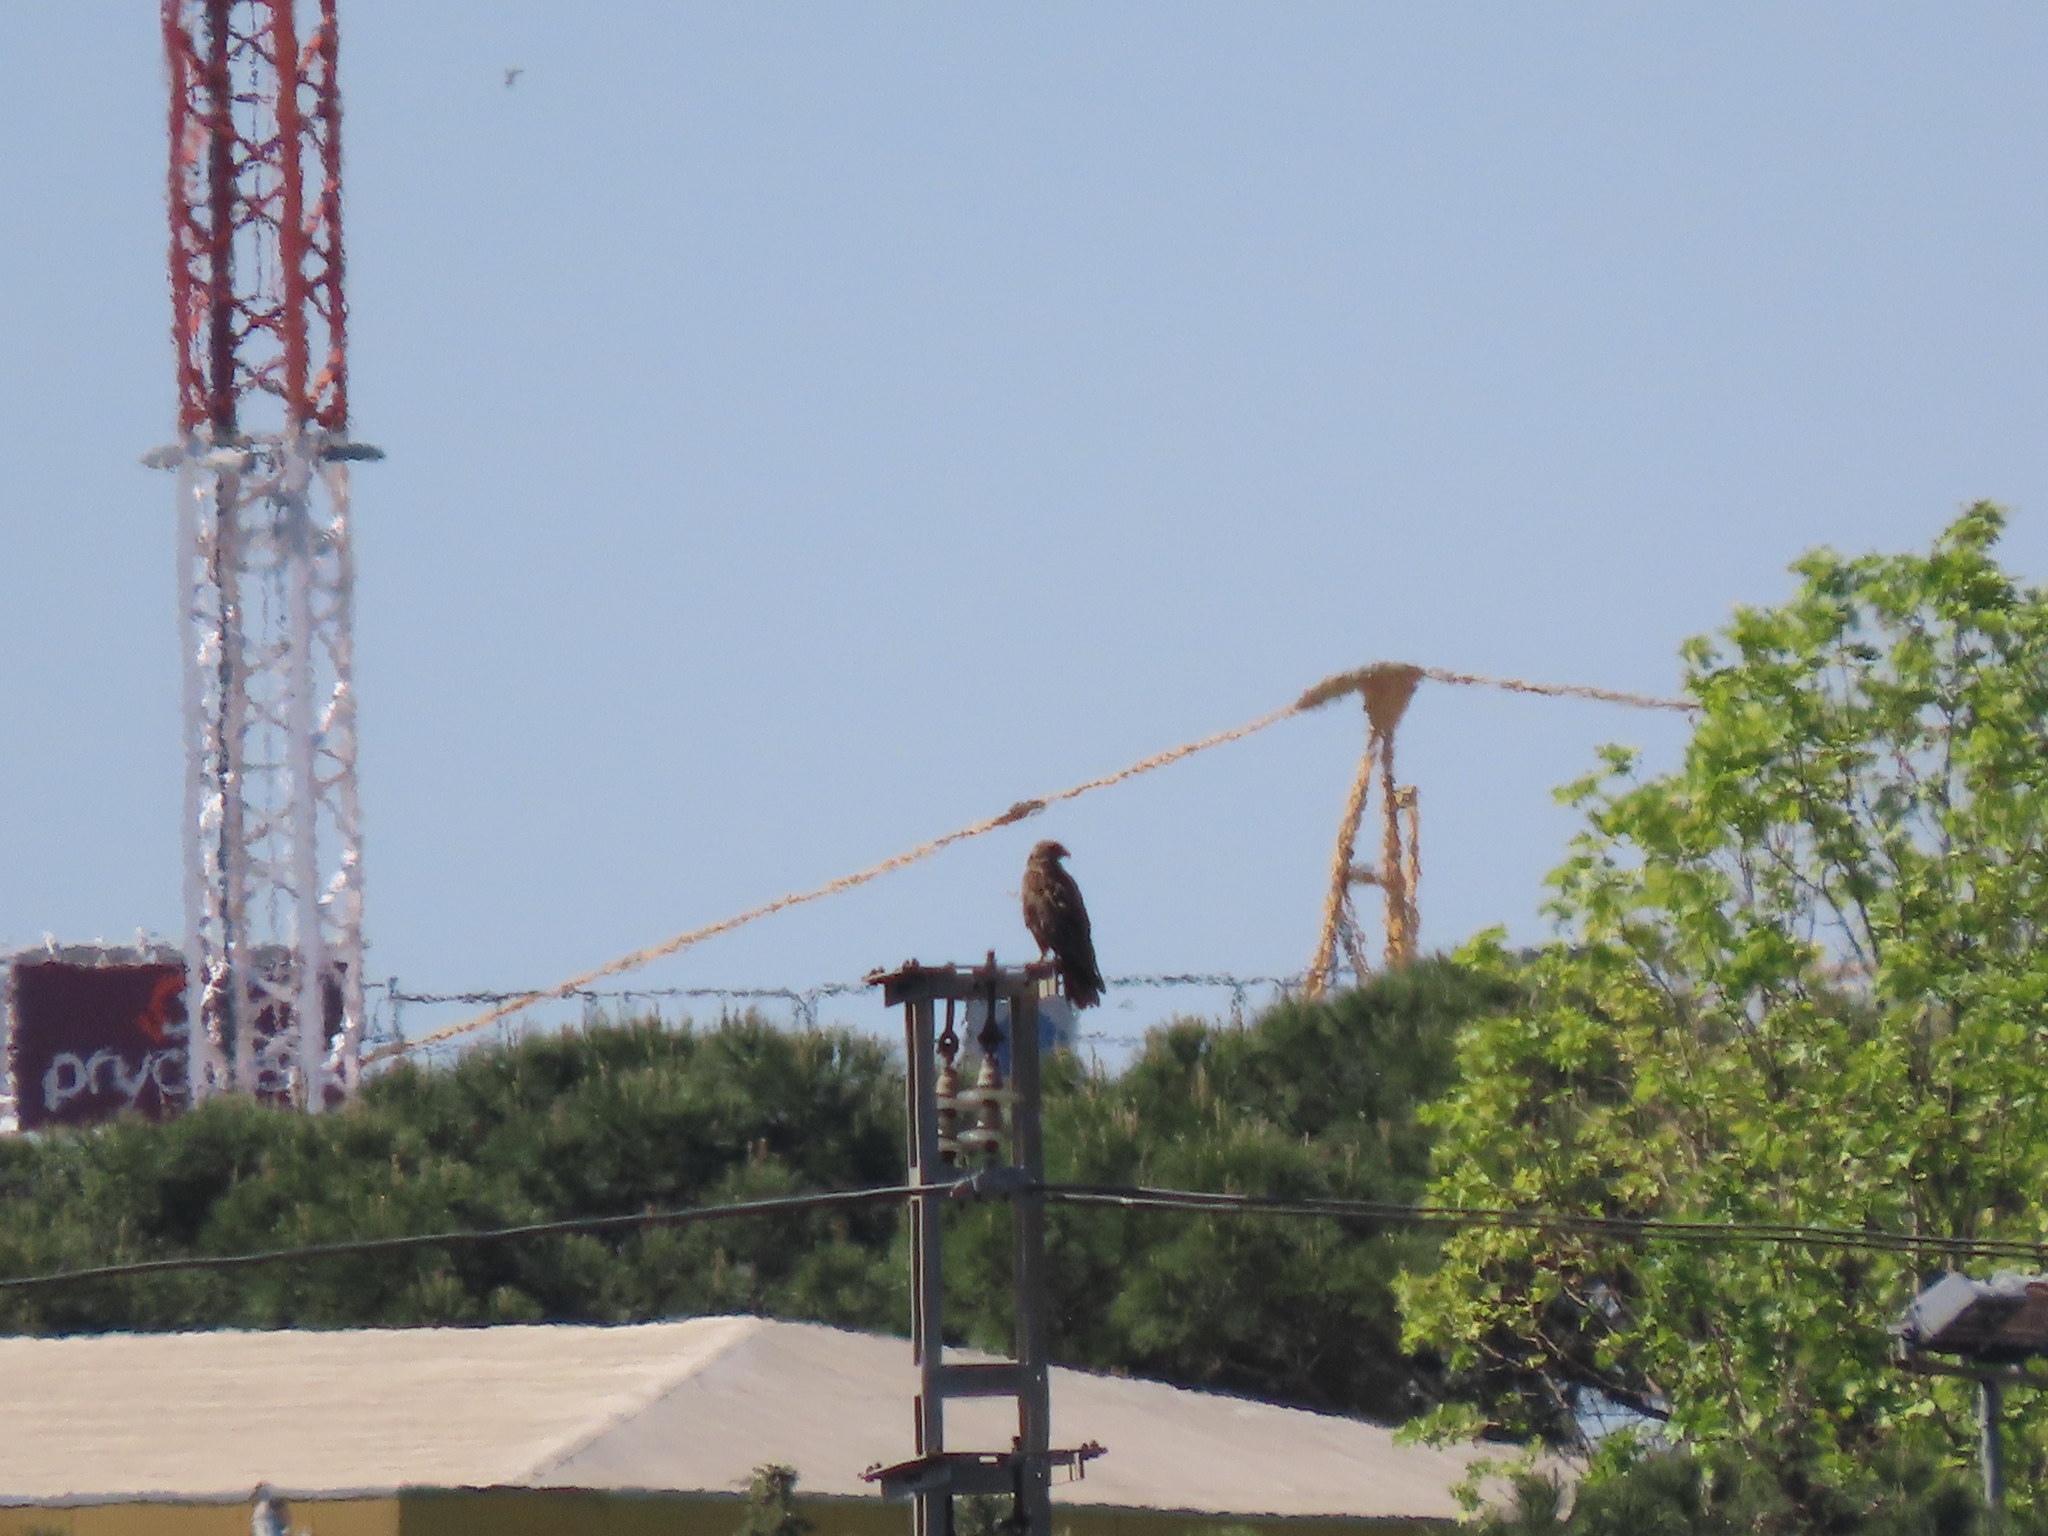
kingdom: Animalia
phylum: Chordata
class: Aves
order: Accipitriformes
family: Accipitridae
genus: Milvus
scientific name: Milvus migrans
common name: Black kite
